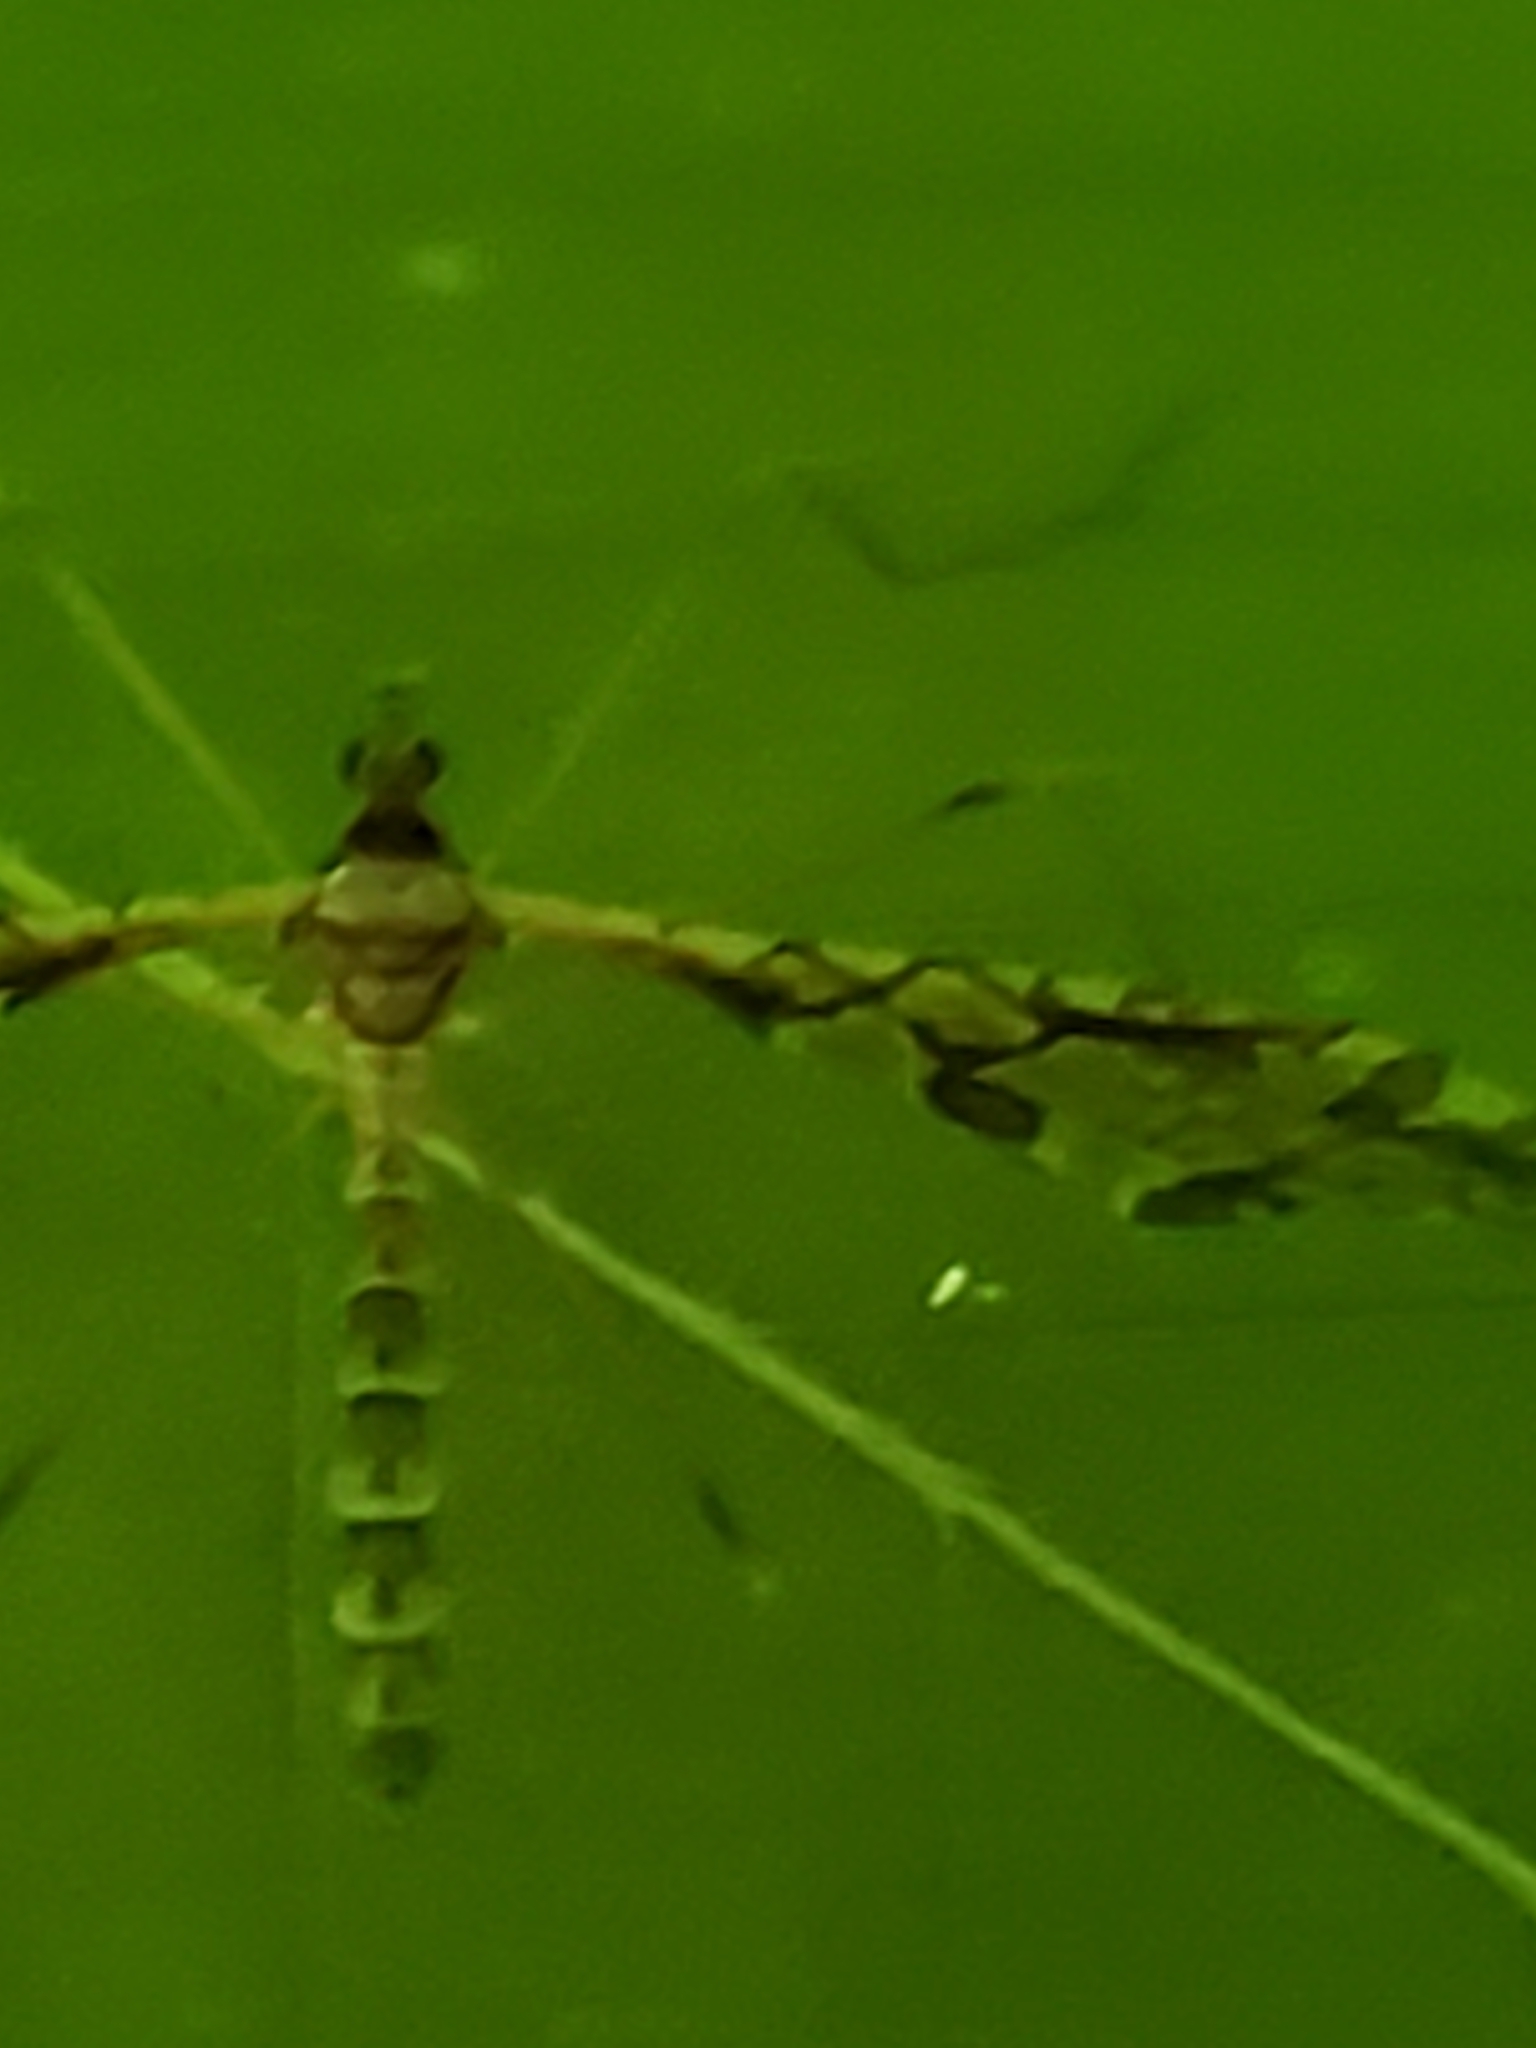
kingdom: Animalia
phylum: Arthropoda
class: Insecta
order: Diptera
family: Limoniidae
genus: Epiphragma
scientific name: Epiphragma solatrix
